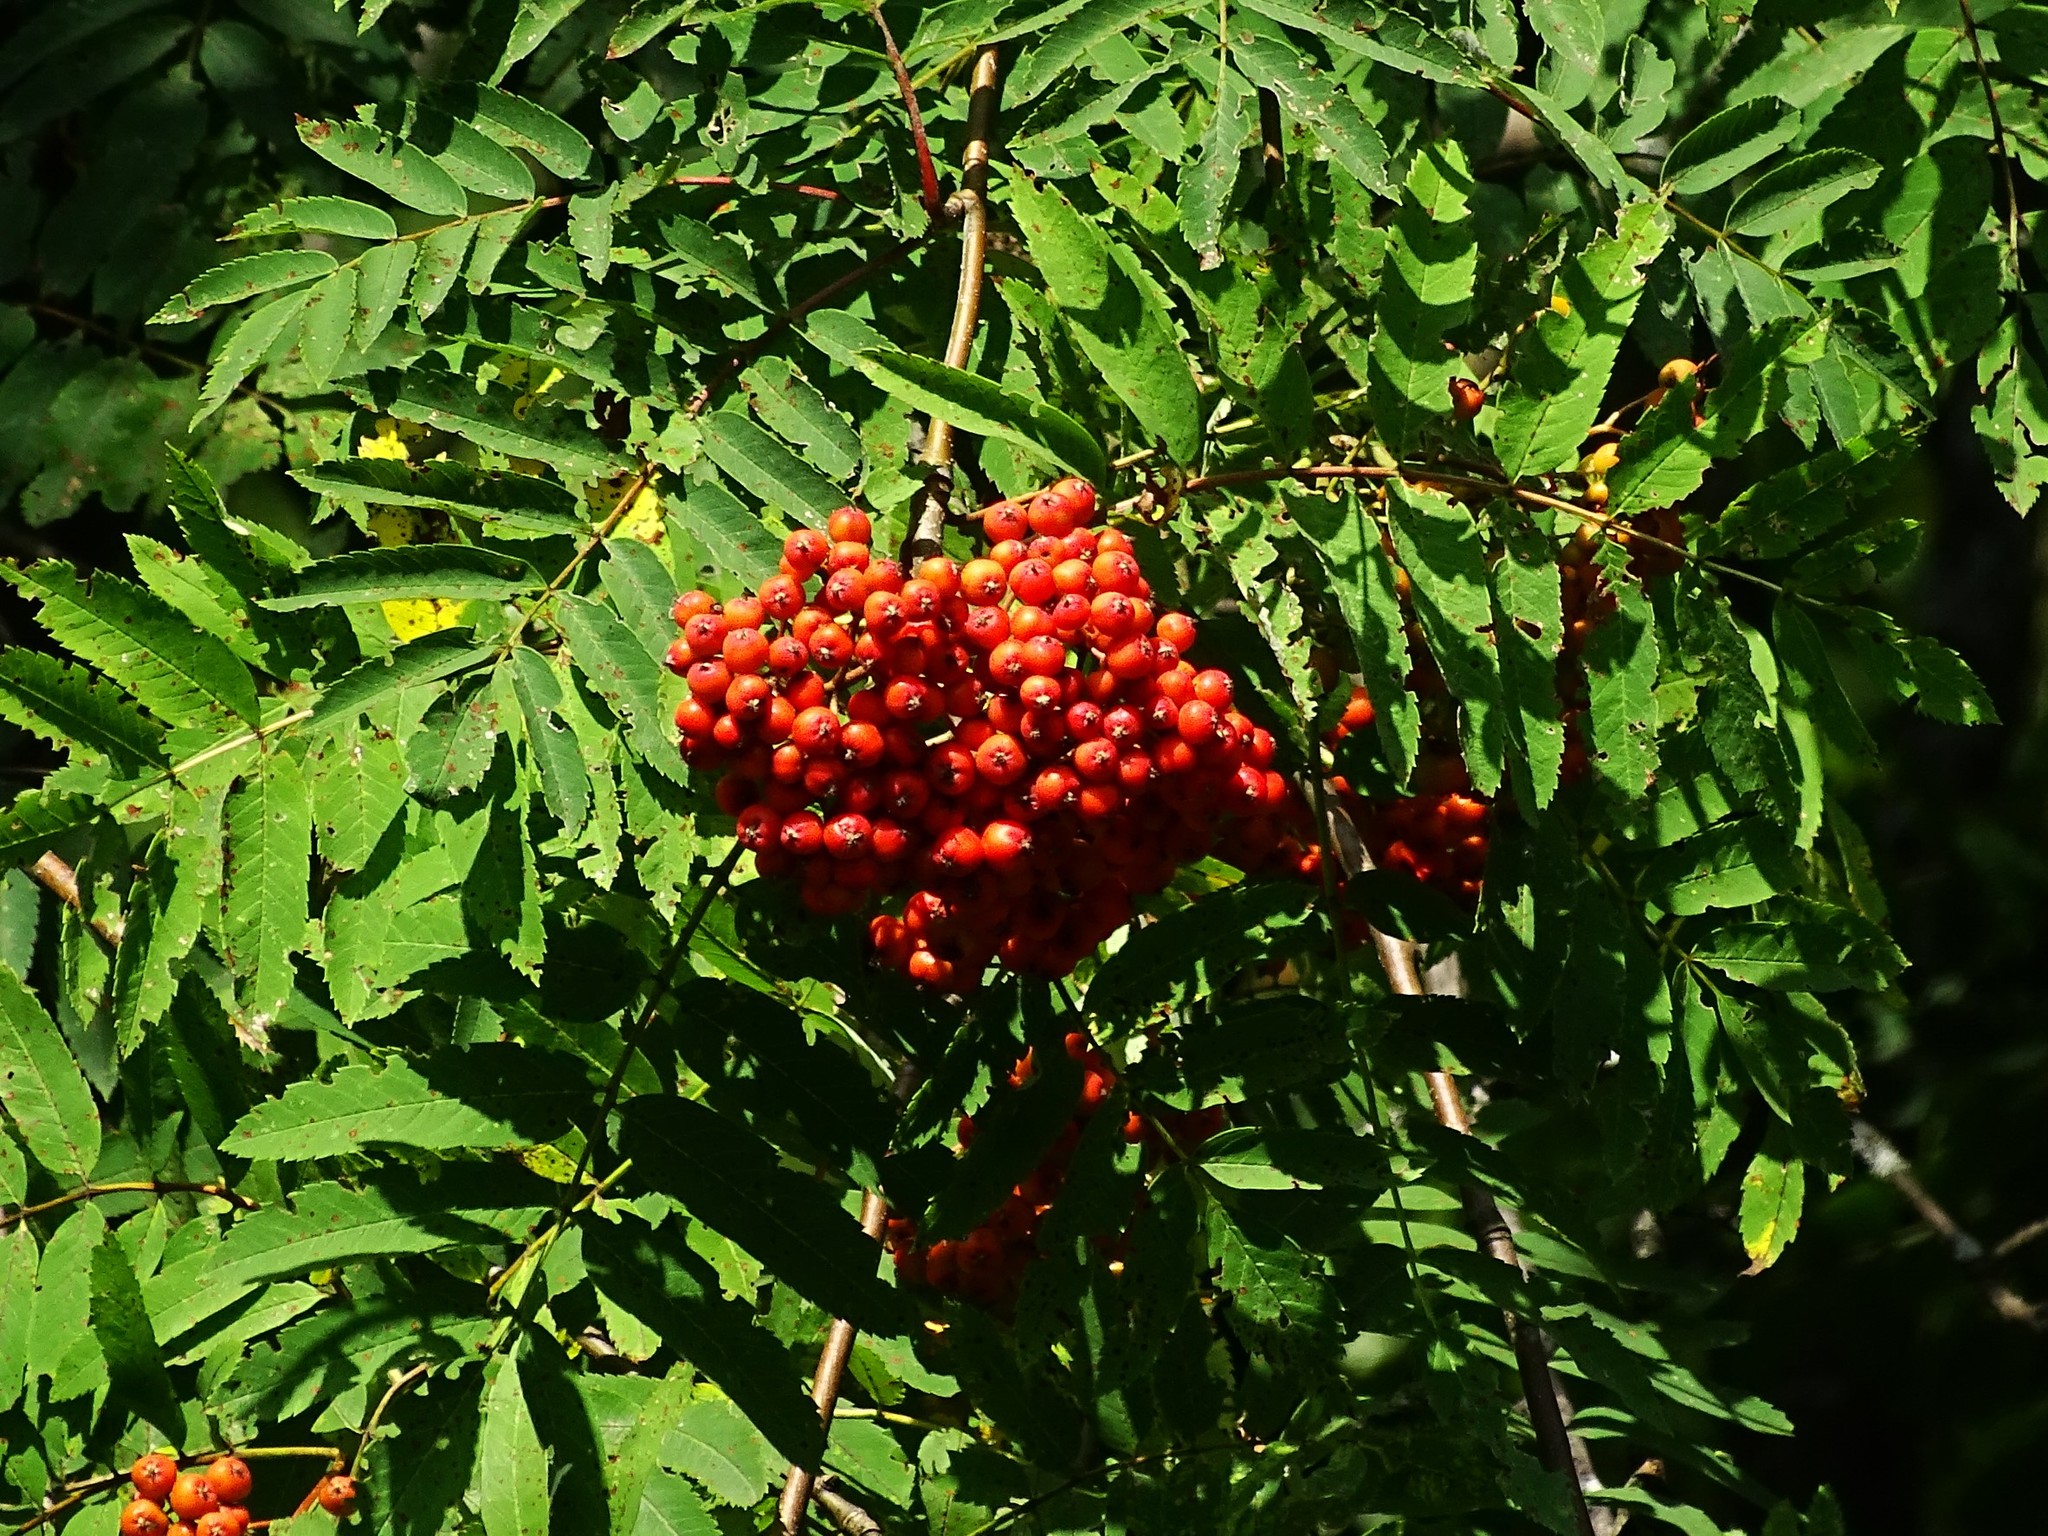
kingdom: Plantae
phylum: Tracheophyta
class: Magnoliopsida
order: Rosales
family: Rosaceae
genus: Sorbus
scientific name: Sorbus aucuparia
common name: Rowan
